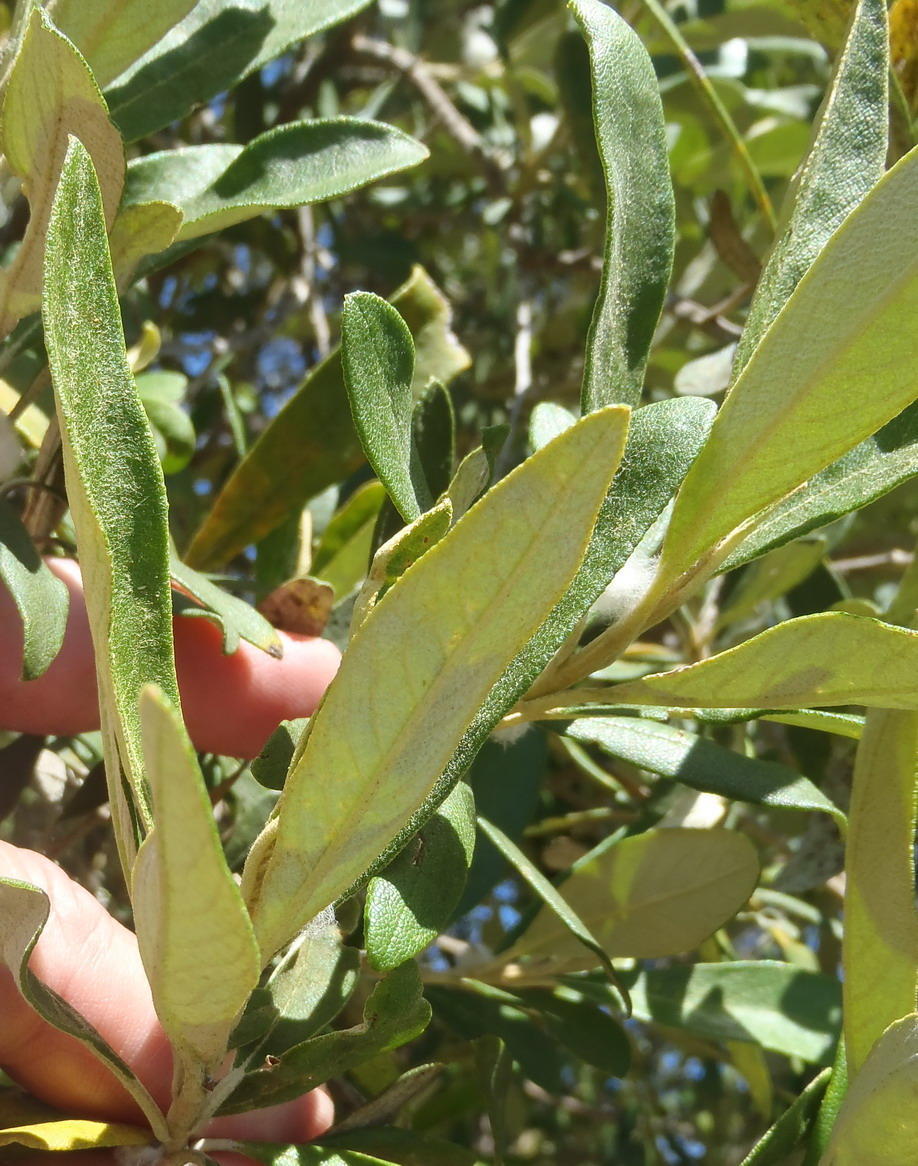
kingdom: Plantae
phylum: Tracheophyta
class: Magnoliopsida
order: Asterales
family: Asteraceae
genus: Tarchonanthus
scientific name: Tarchonanthus littoralis
